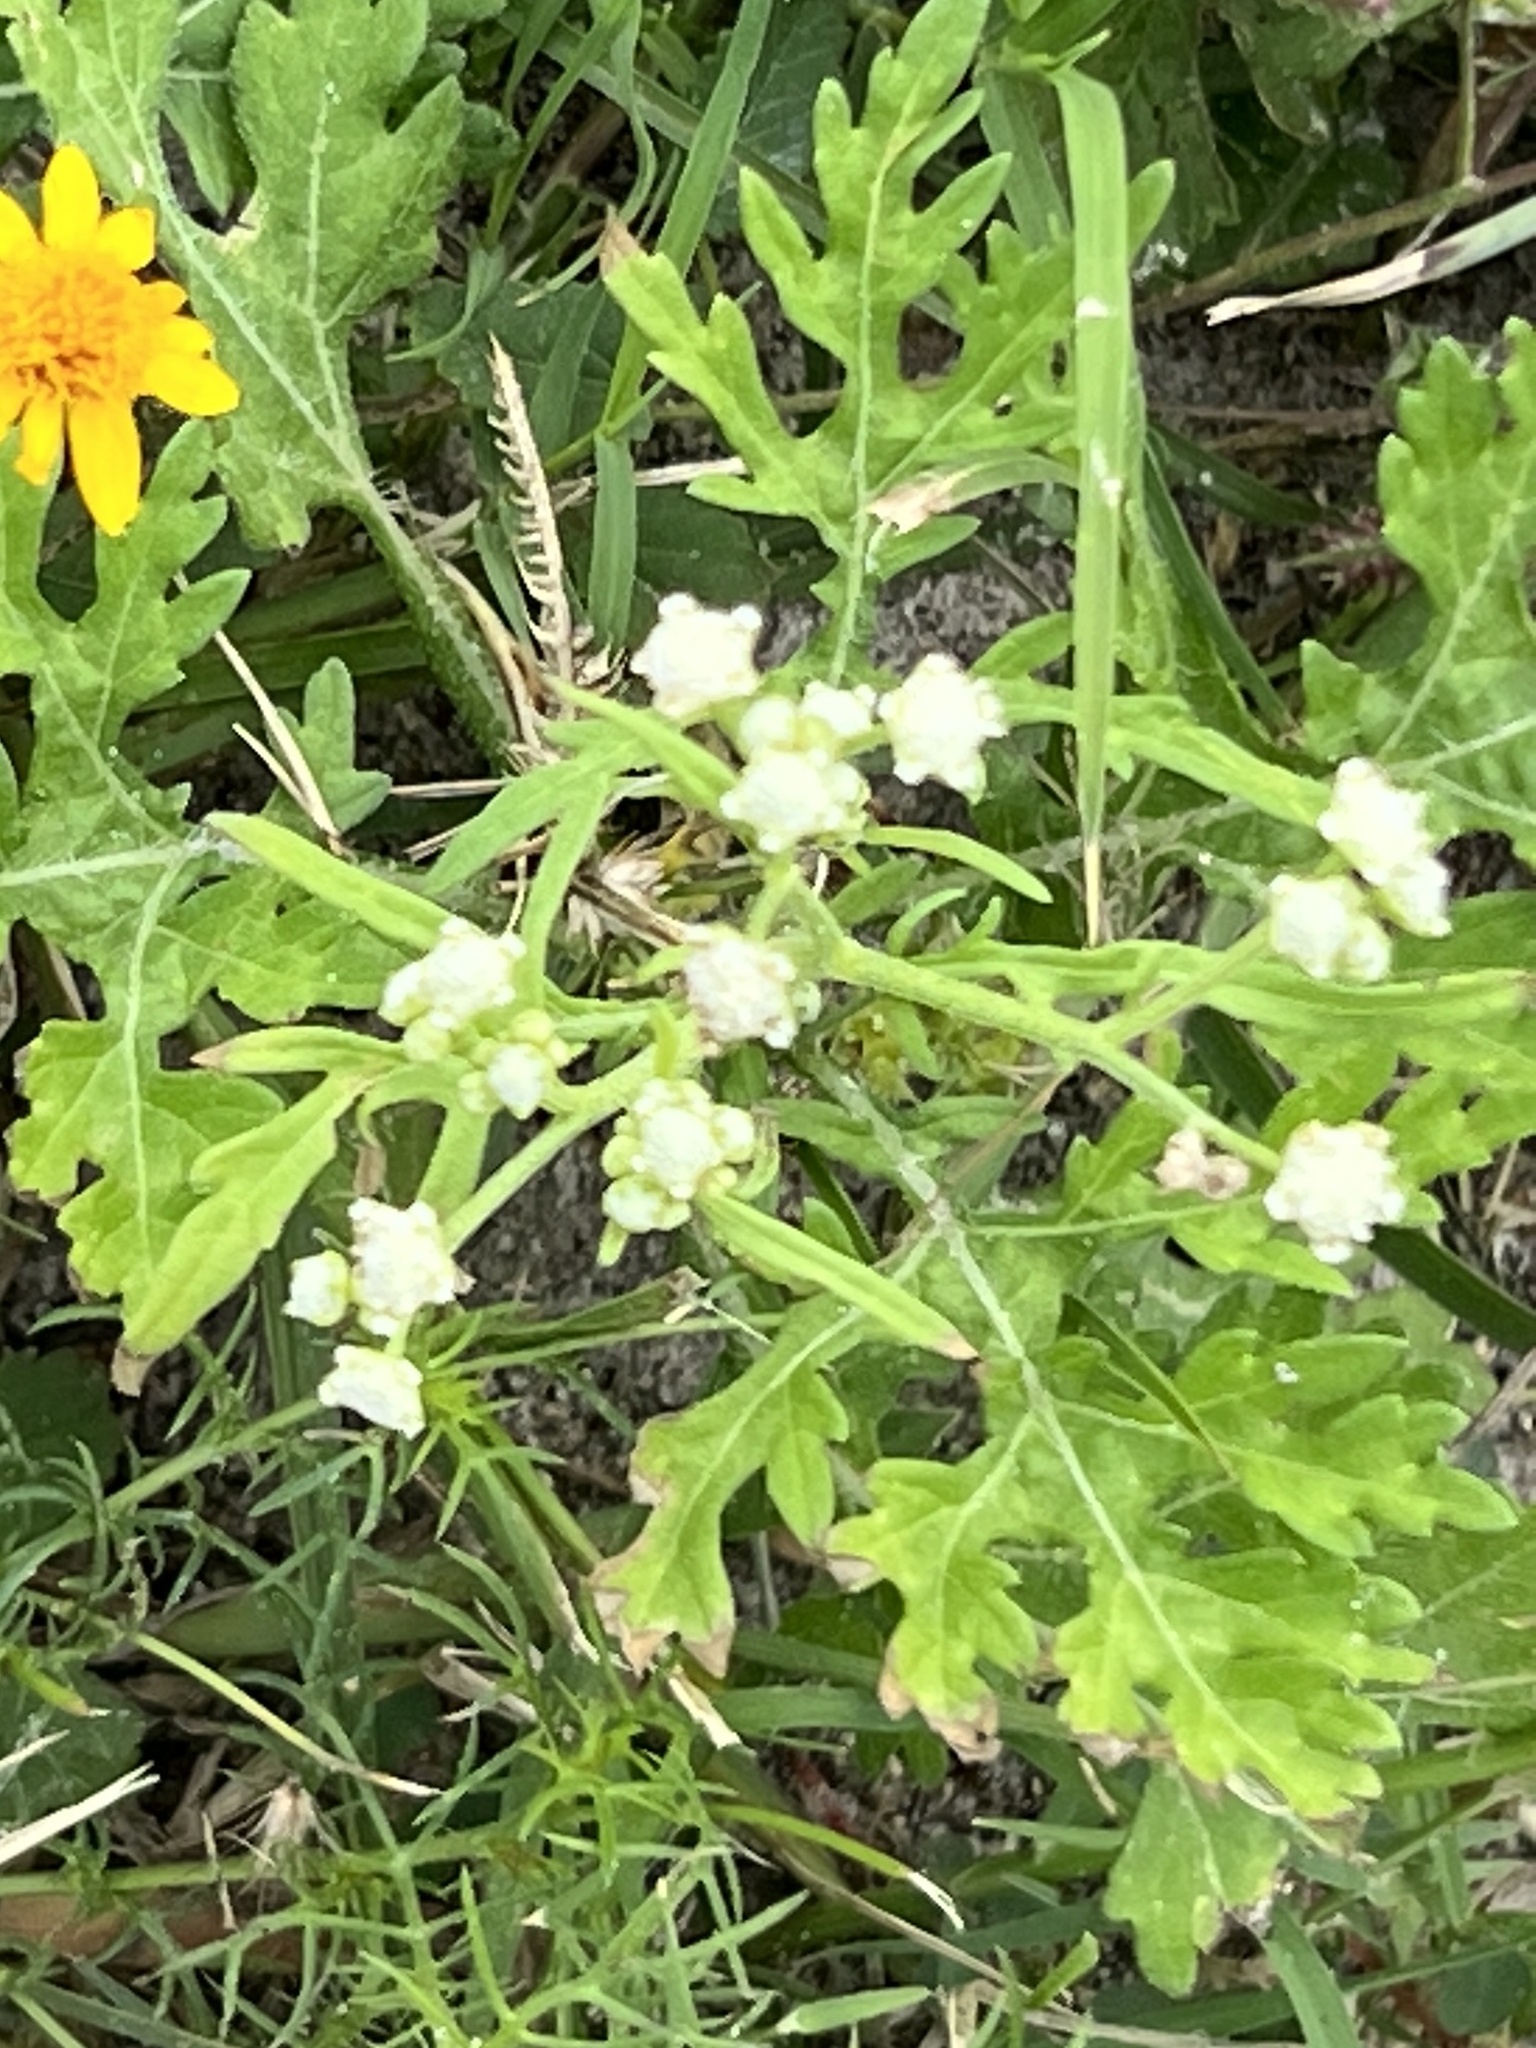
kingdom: Plantae
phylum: Tracheophyta
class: Magnoliopsida
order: Asterales
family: Asteraceae
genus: Parthenium
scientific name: Parthenium hysterophorus
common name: Santa maria feverfew
